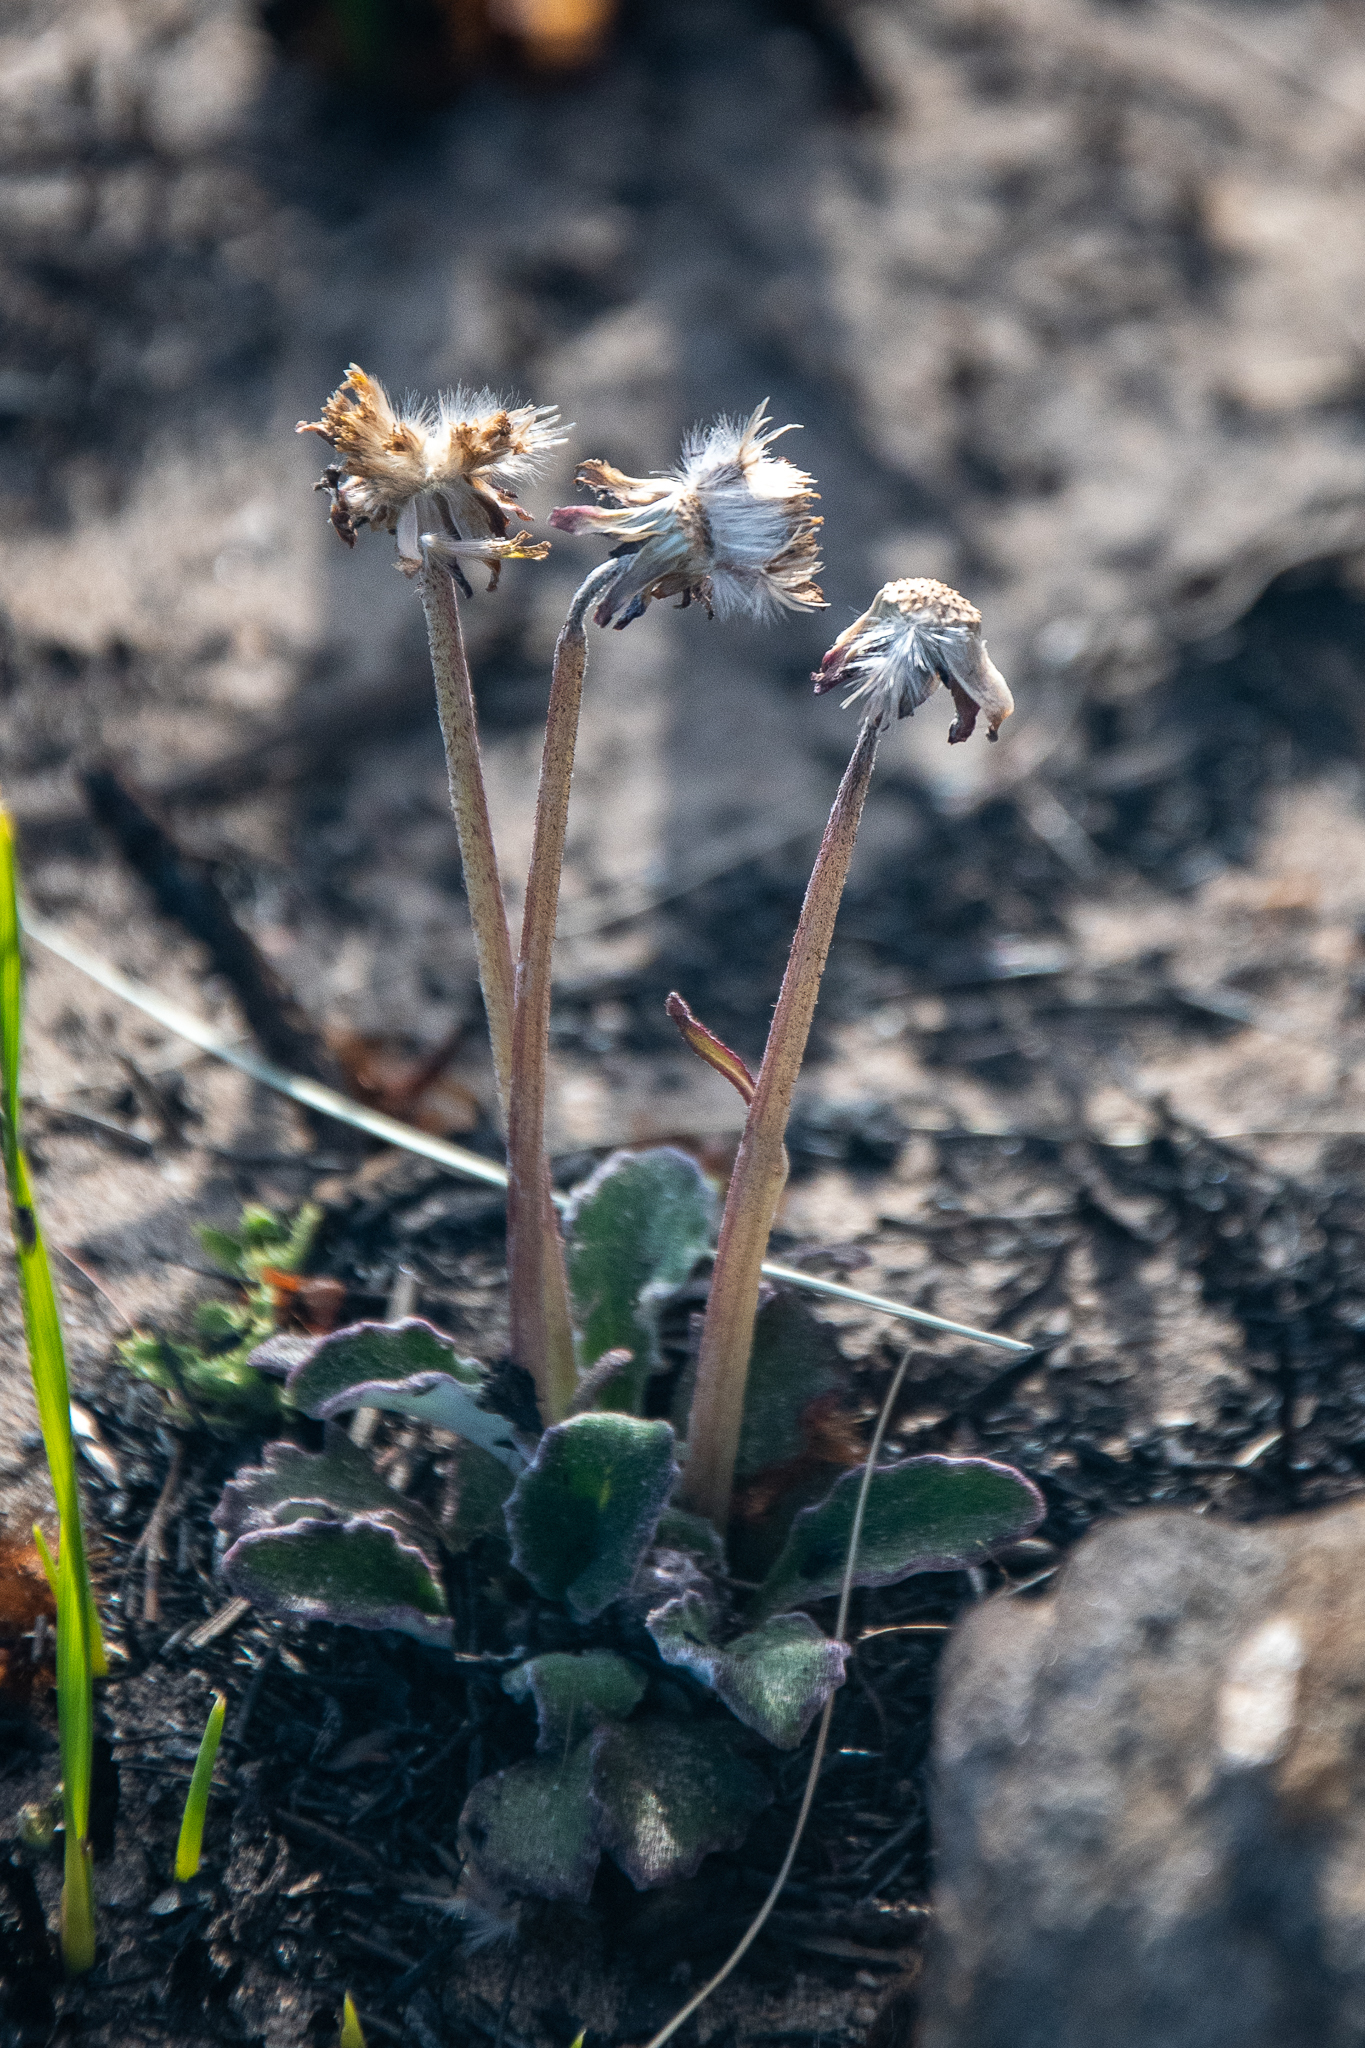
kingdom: Plantae
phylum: Tracheophyta
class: Magnoliopsida
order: Asterales
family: Asteraceae
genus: Haplocarpha
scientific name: Haplocarpha lanata
